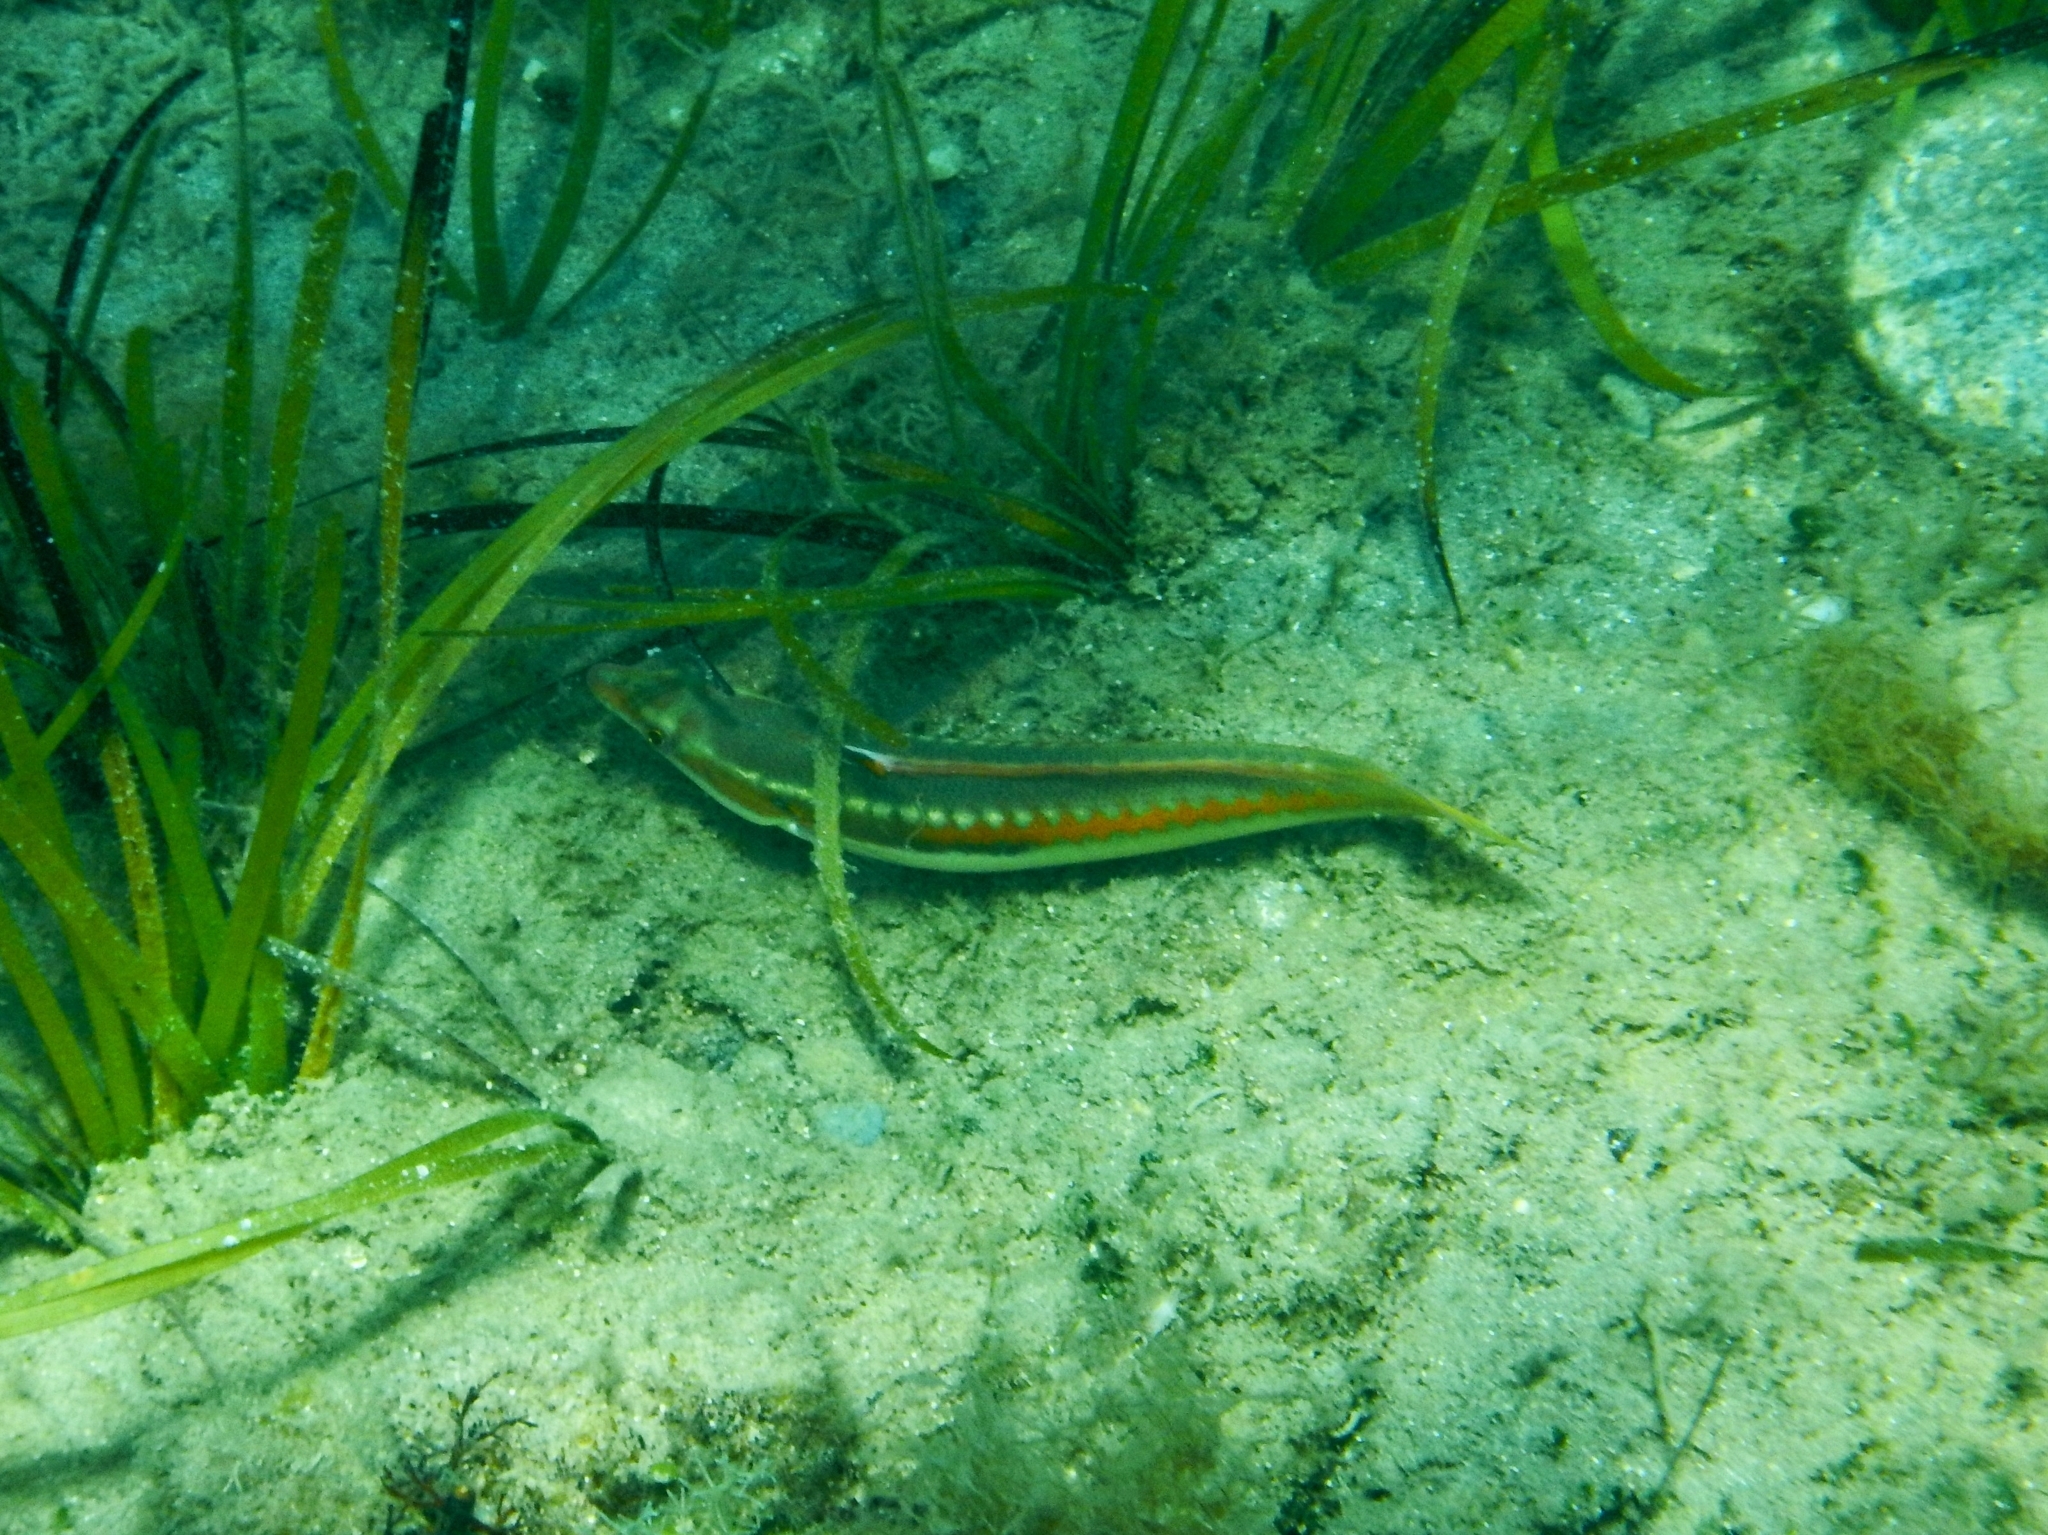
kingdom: Animalia
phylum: Chordata
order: Perciformes
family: Labridae
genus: Coris
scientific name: Coris julis
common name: Rainbow wrasse
